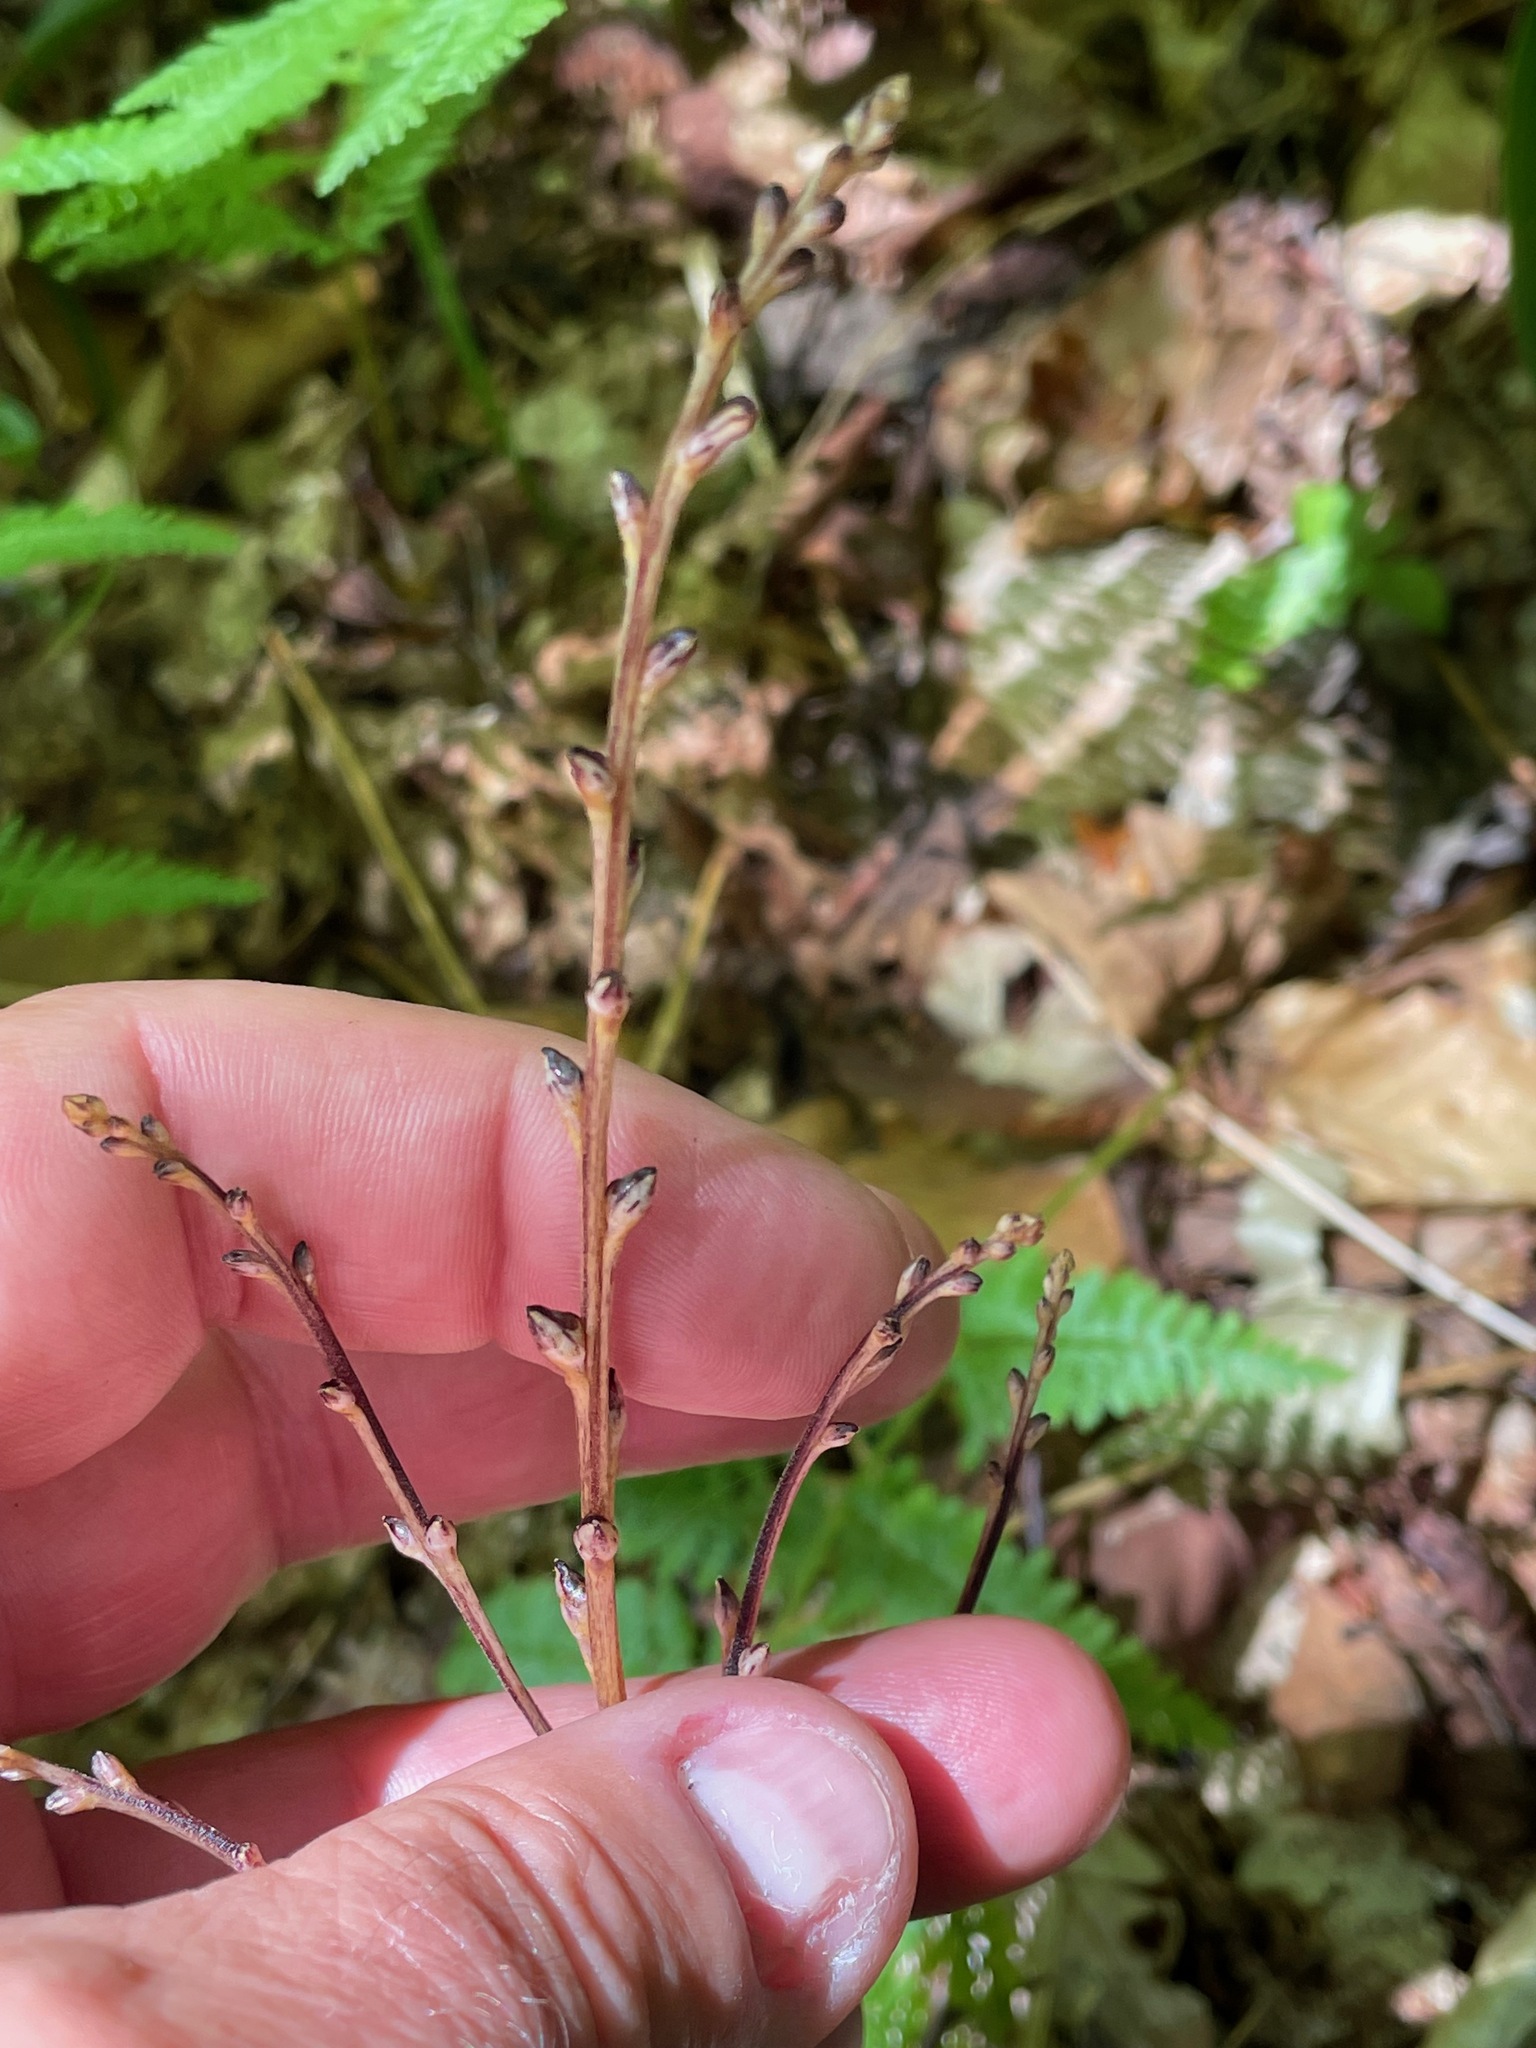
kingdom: Plantae
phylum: Tracheophyta
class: Magnoliopsida
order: Lamiales
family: Orobanchaceae
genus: Epifagus
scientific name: Epifagus virginiana
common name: Beechdrops
